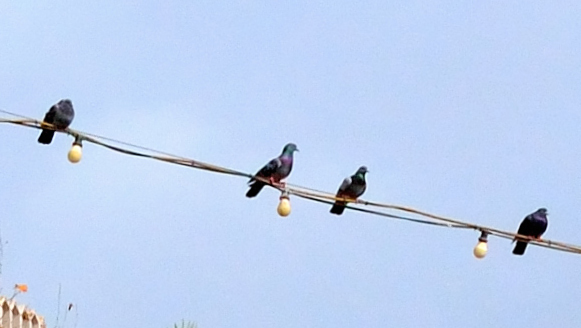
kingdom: Animalia
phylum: Chordata
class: Aves
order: Columbiformes
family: Columbidae
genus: Columba
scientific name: Columba livia
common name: Rock pigeon
